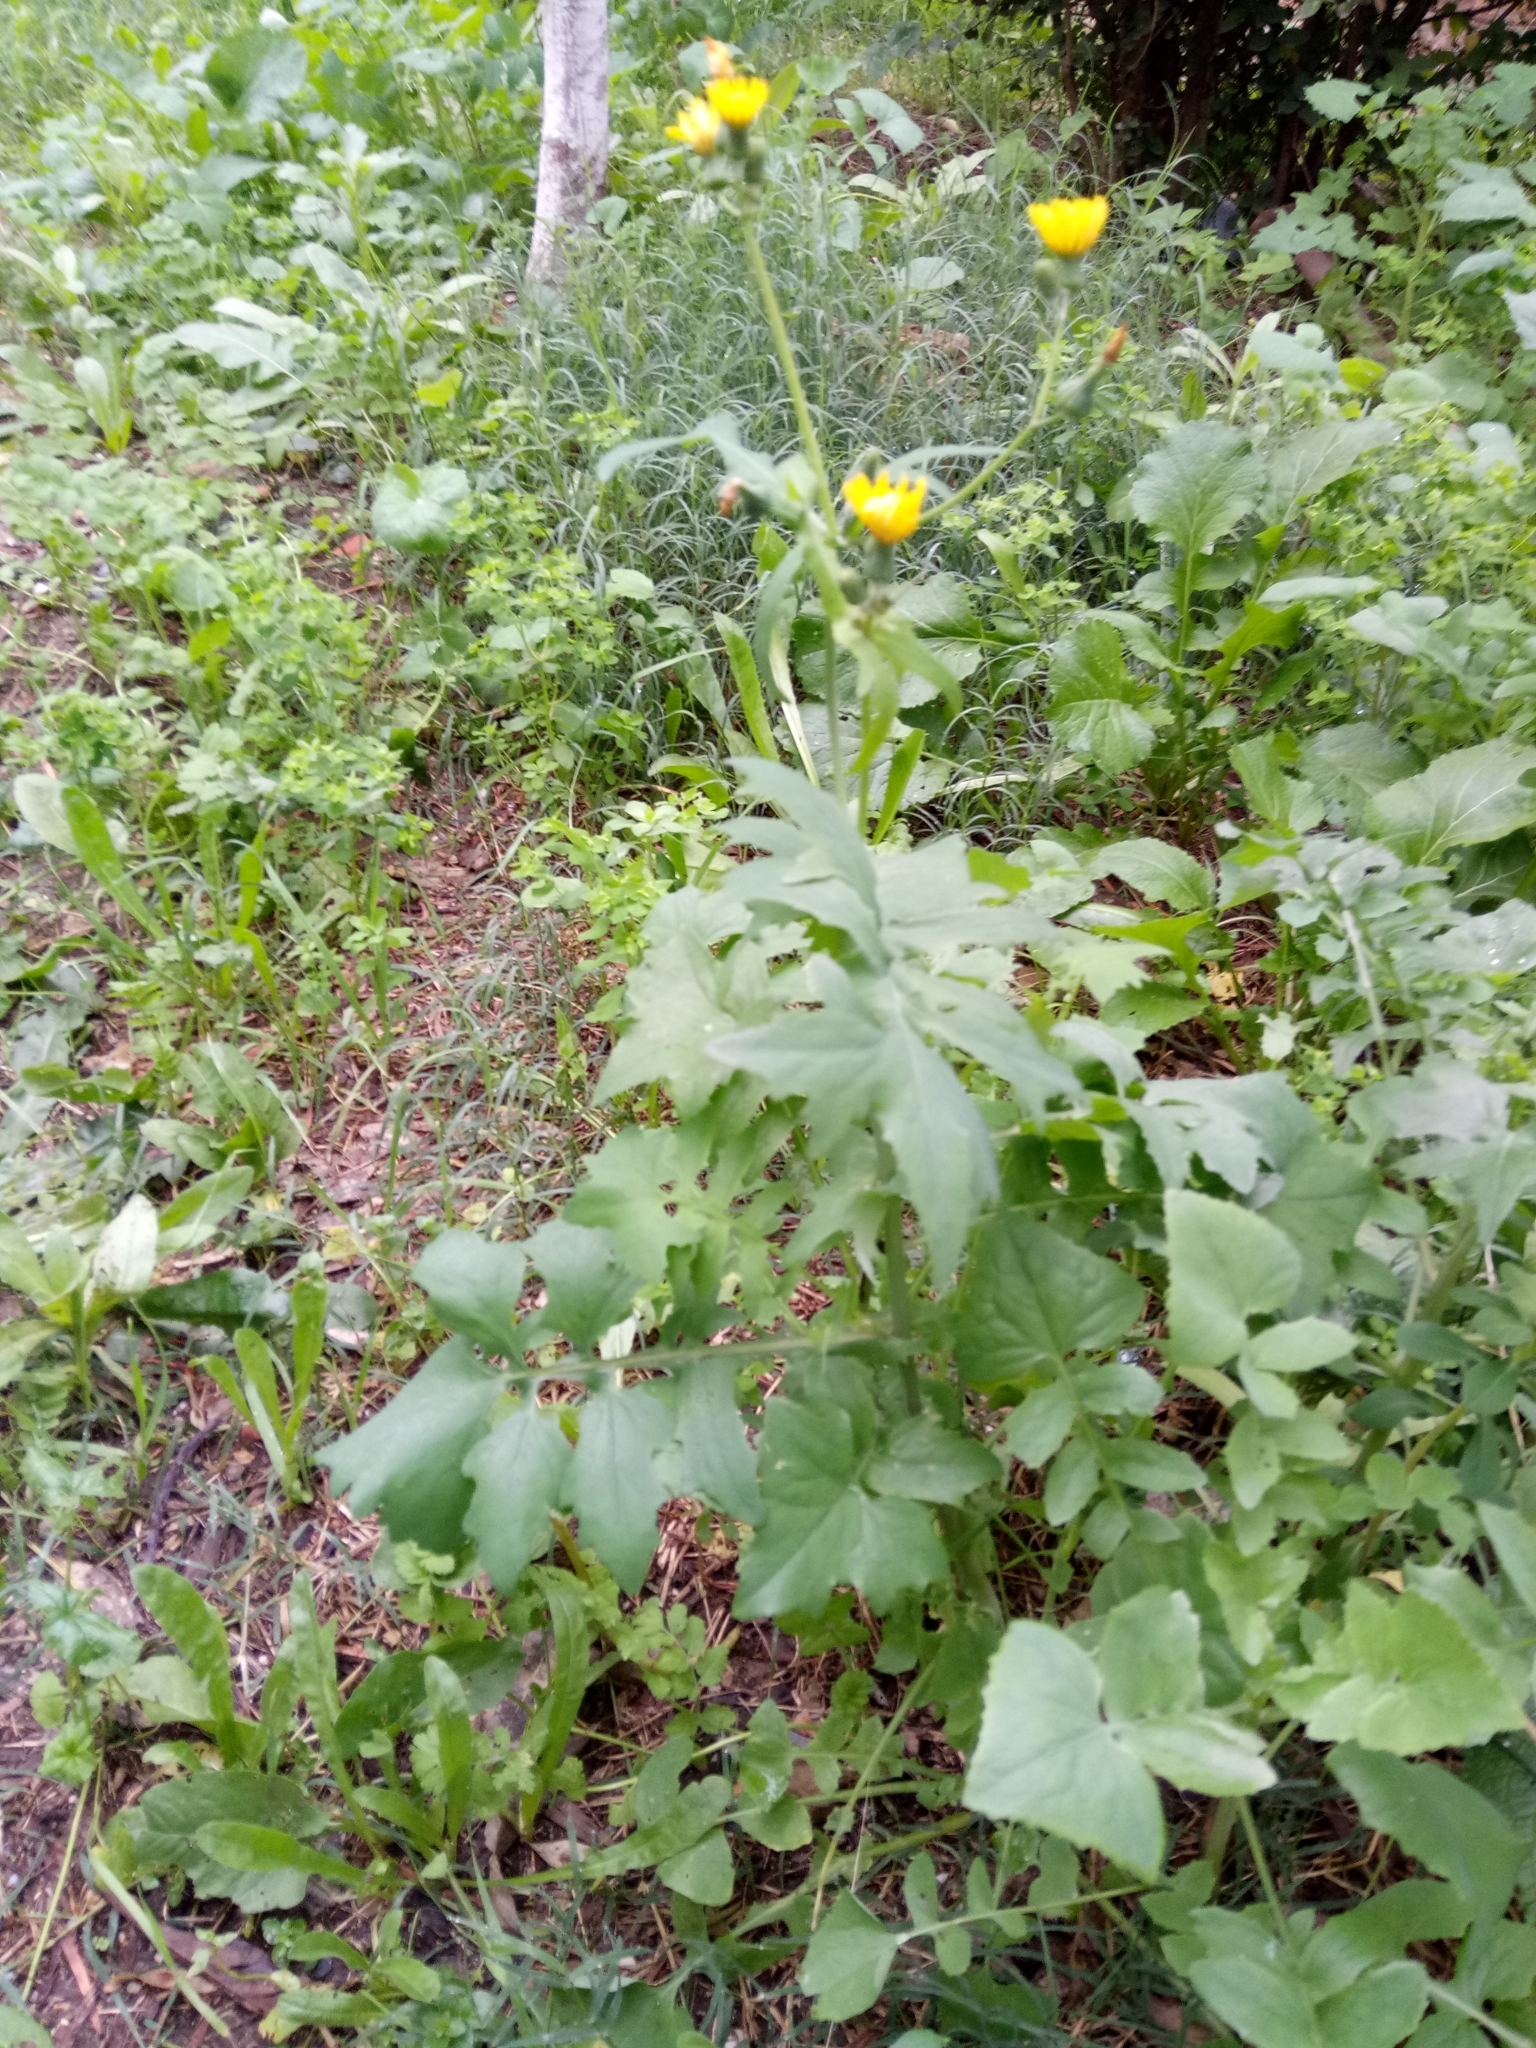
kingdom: Plantae
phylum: Tracheophyta
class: Magnoliopsida
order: Asterales
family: Asteraceae
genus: Sonchus
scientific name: Sonchus tenerrimus
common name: Clammy sowthistle
